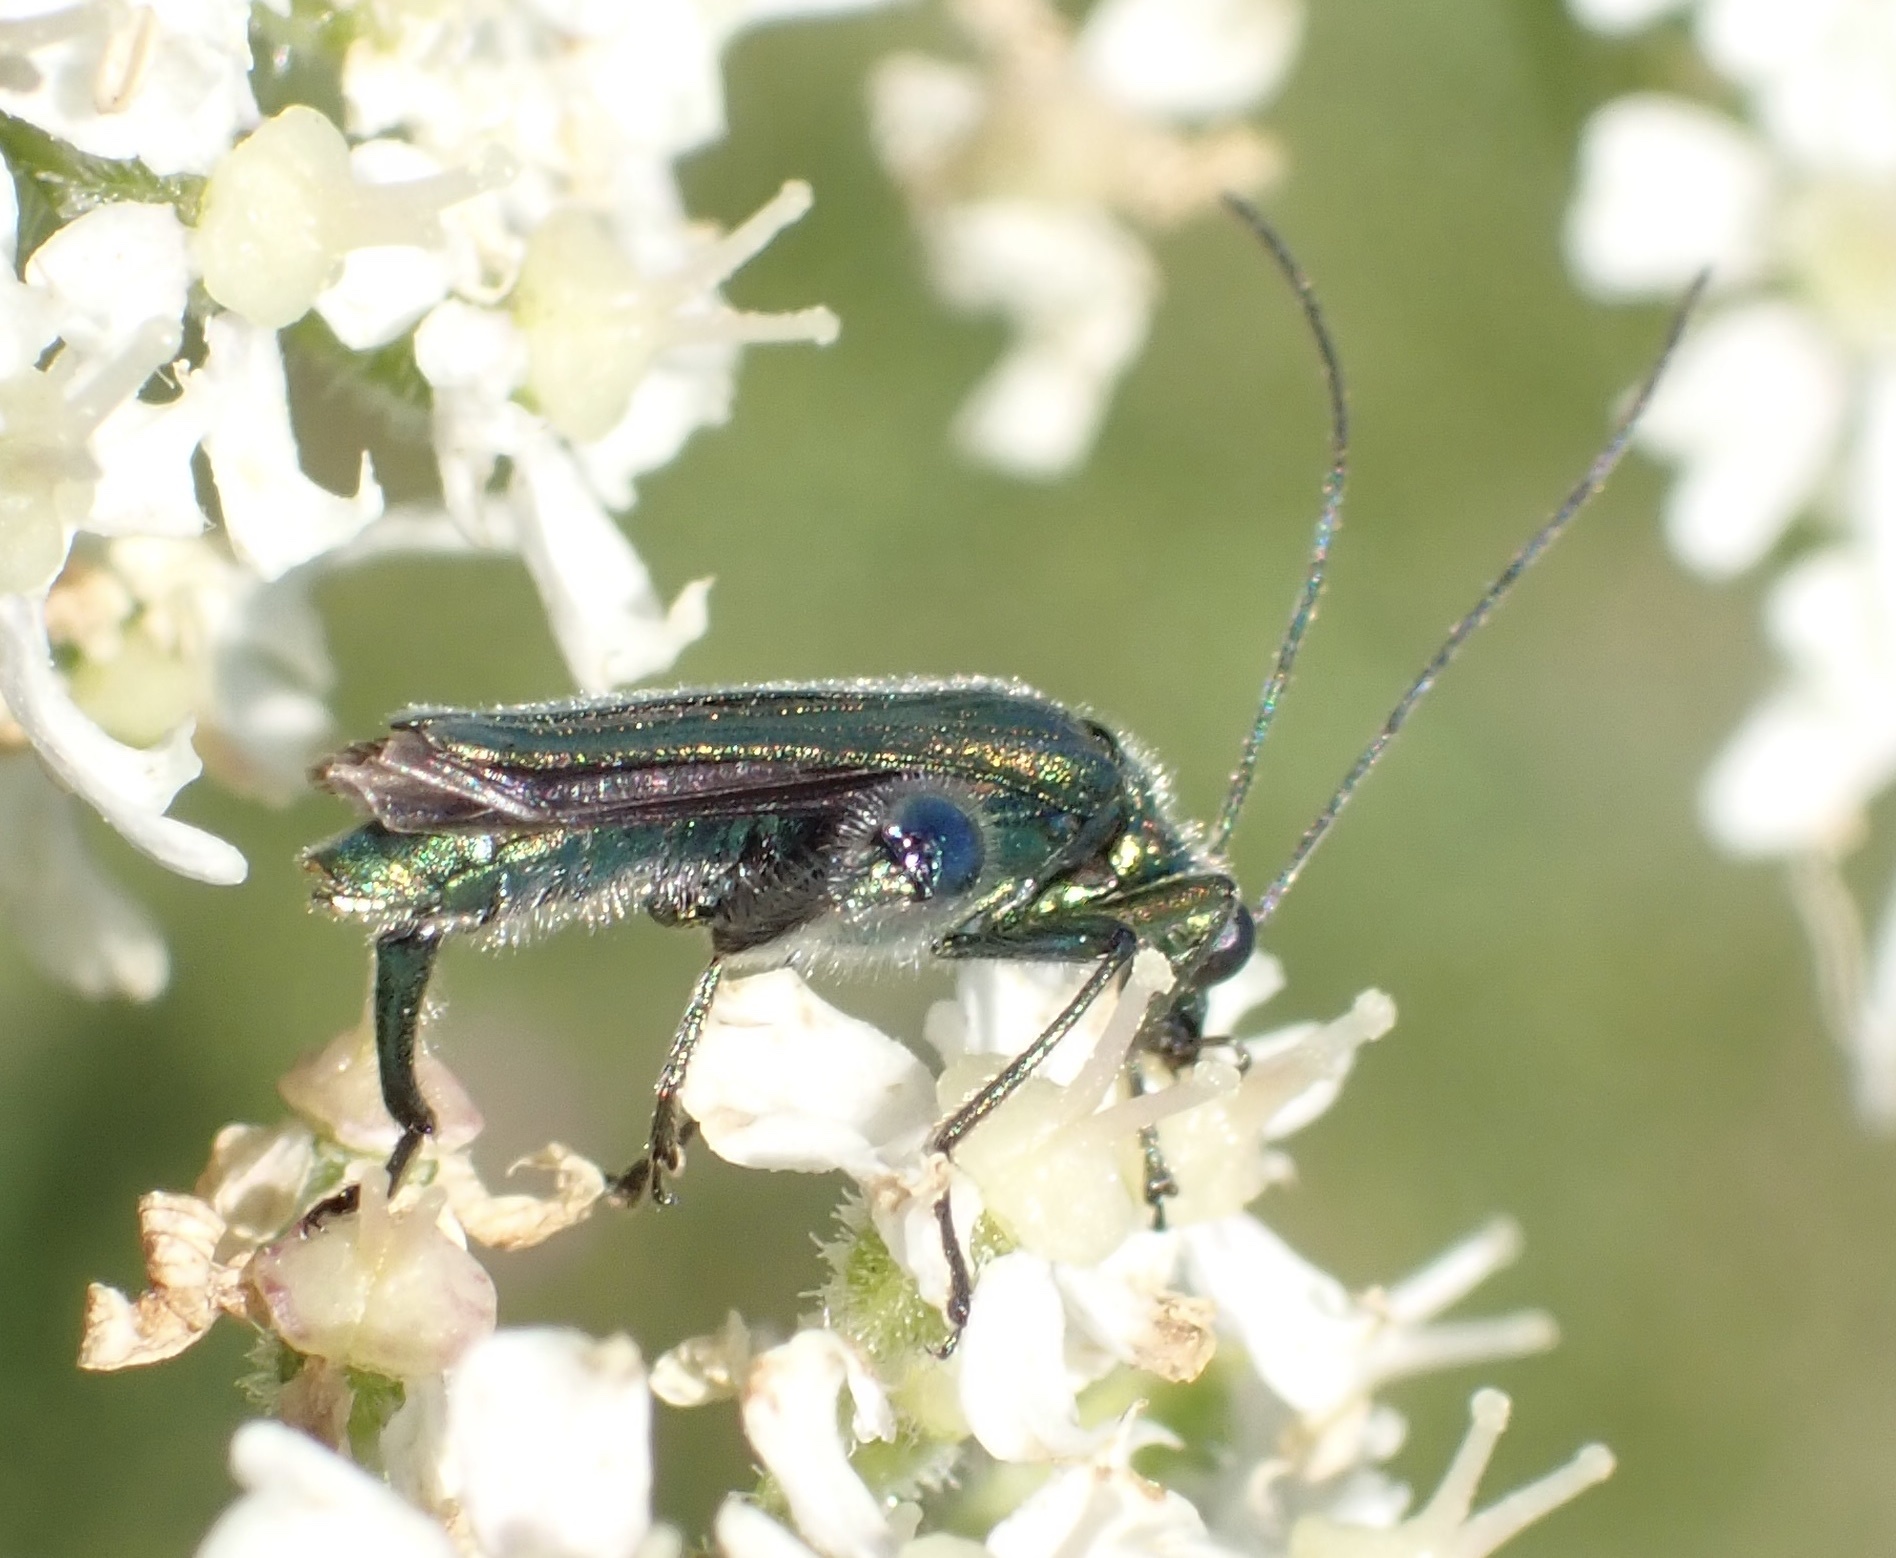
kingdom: Animalia
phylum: Arthropoda
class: Insecta
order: Coleoptera
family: Oedemeridae
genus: Oedemera
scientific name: Oedemera nobilis
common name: Swollen-thighed beetle
